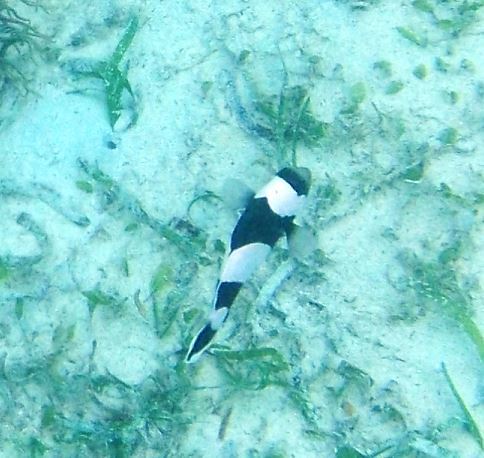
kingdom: Animalia
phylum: Chordata
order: Perciformes
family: Pomacentridae
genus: Amphiprion
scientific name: Amphiprion polymnus
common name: Saddleback anemonefish
